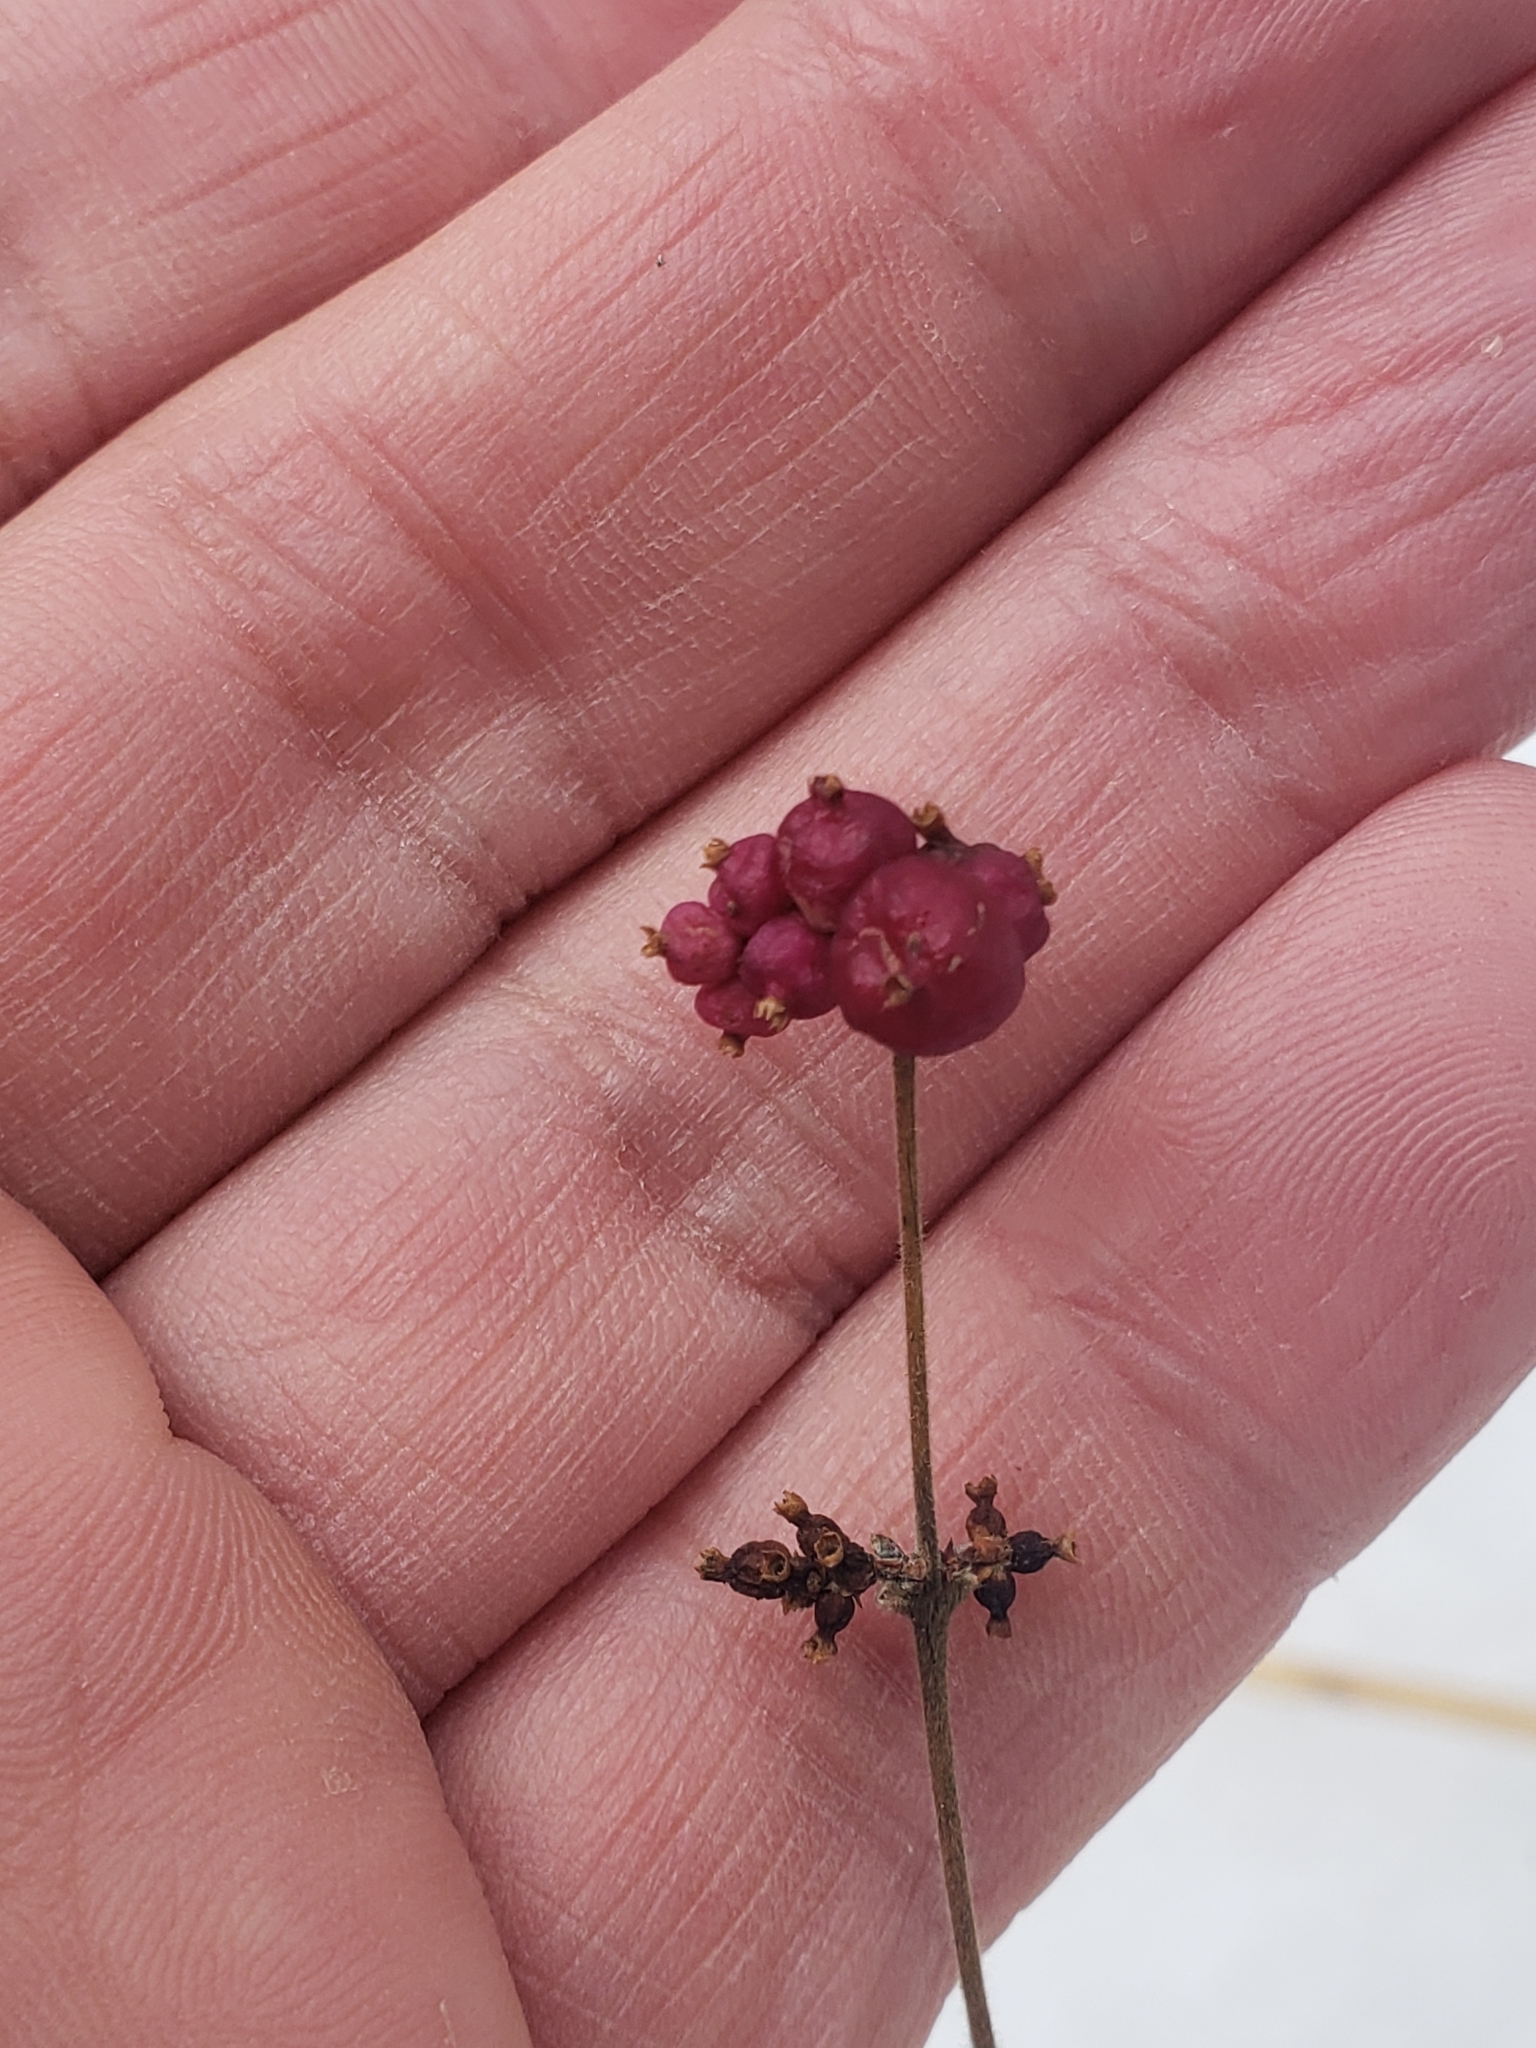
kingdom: Plantae
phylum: Tracheophyta
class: Magnoliopsida
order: Dipsacales
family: Caprifoliaceae
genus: Symphoricarpos
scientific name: Symphoricarpos orbiculatus
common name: Coralberry
